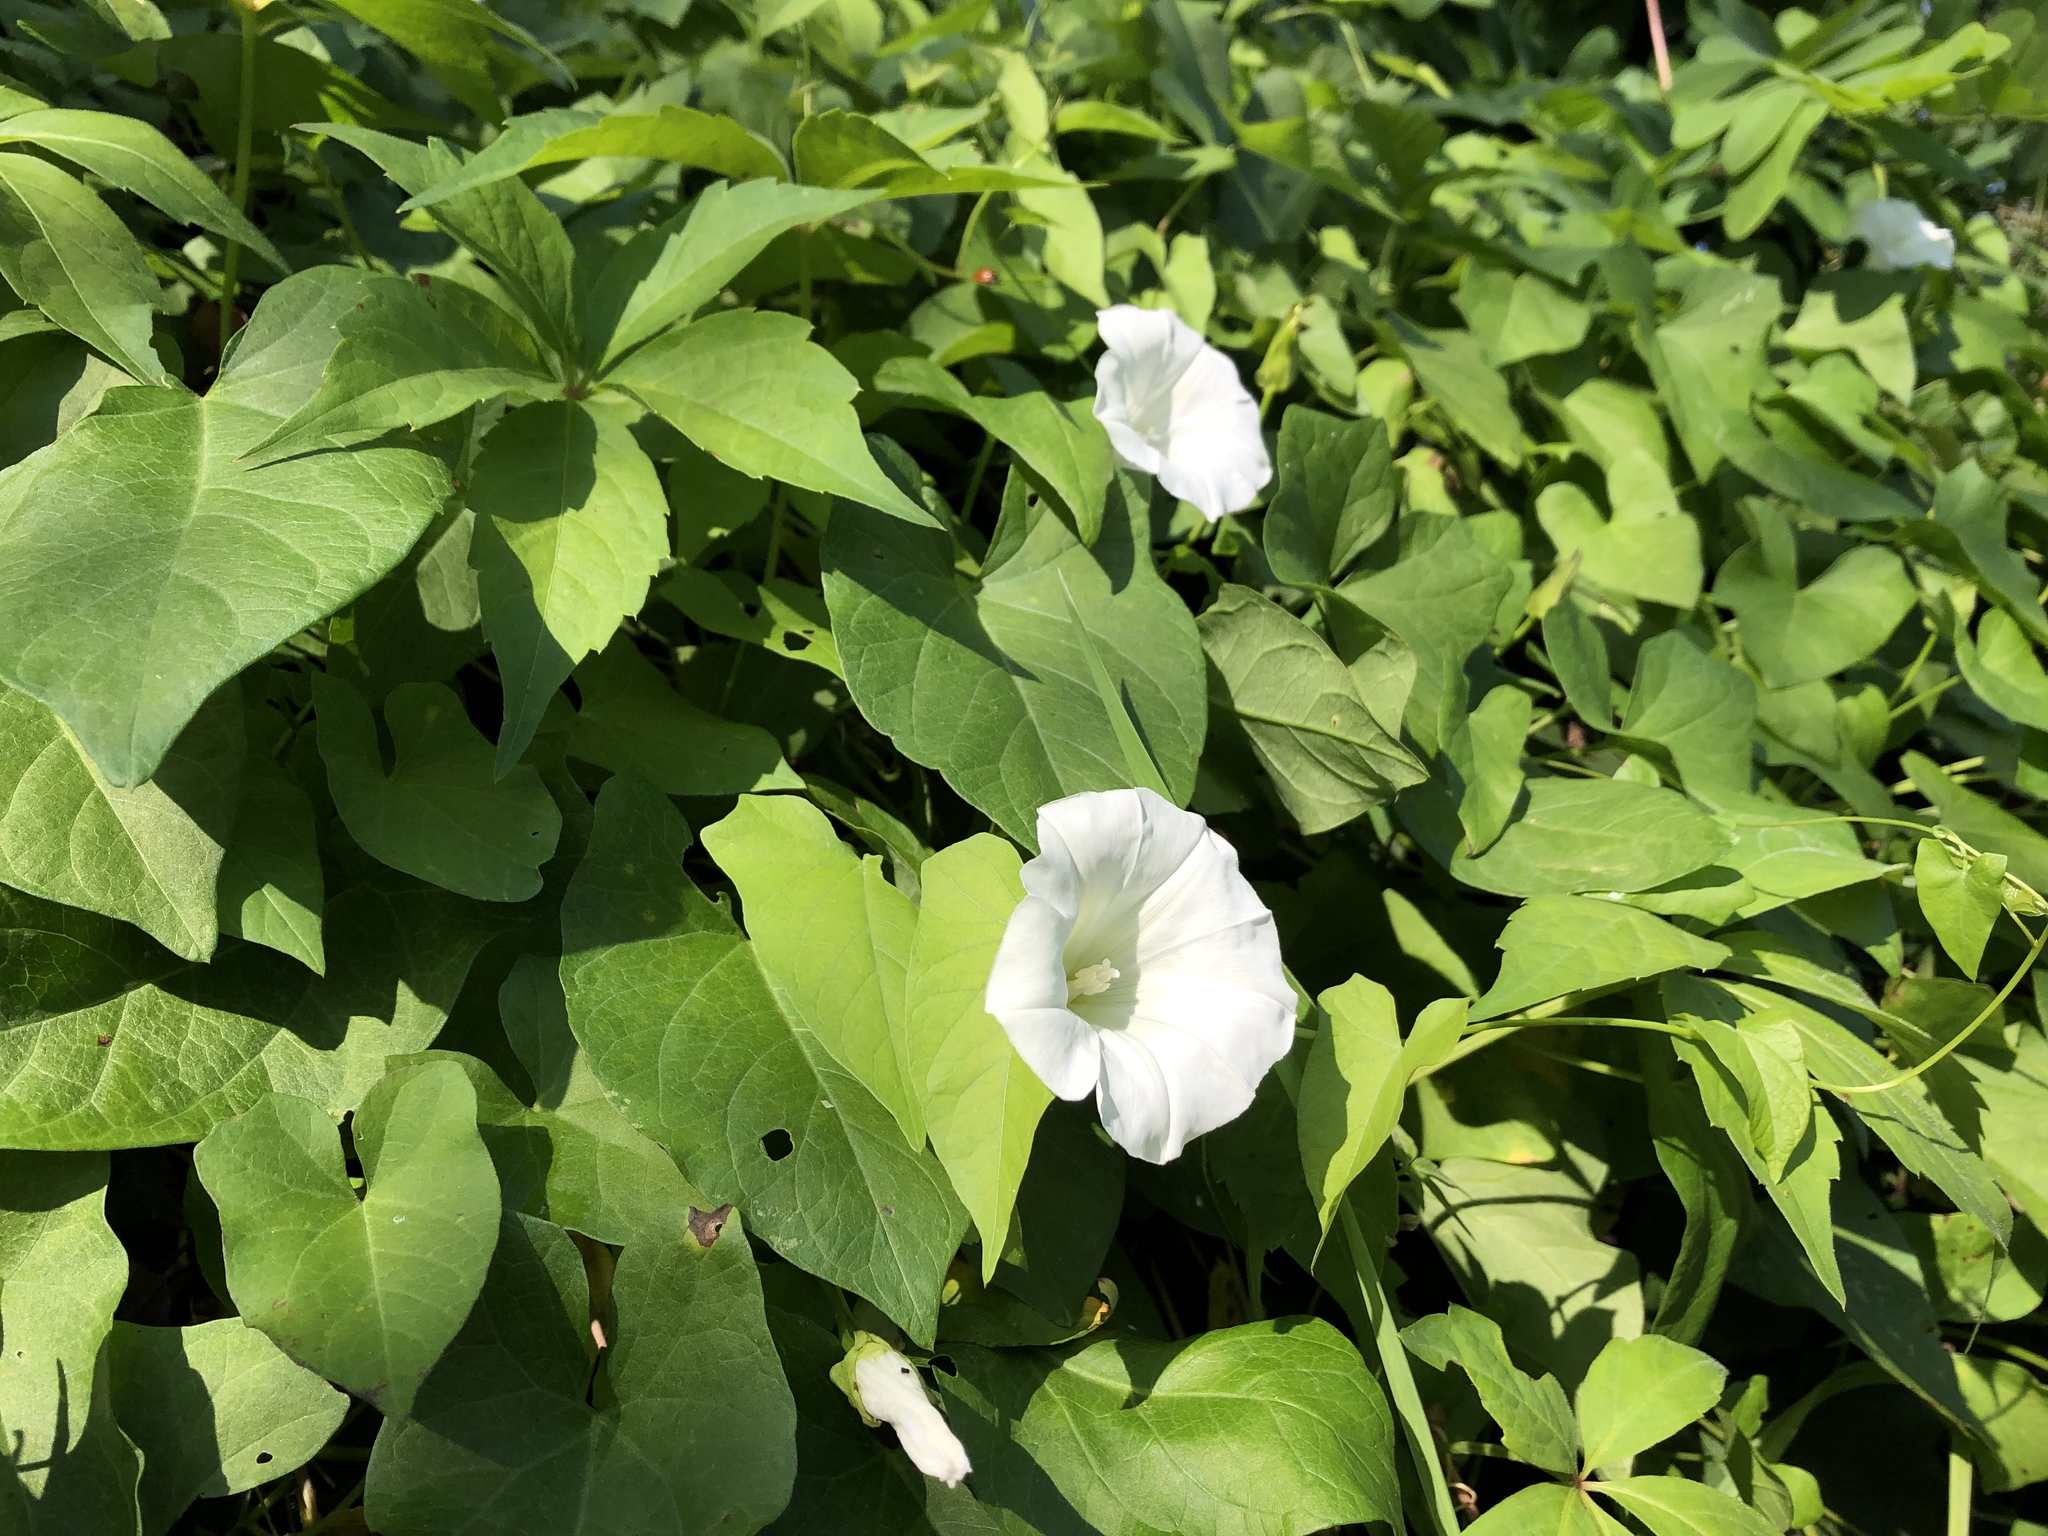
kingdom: Plantae
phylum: Tracheophyta
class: Magnoliopsida
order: Solanales
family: Convolvulaceae
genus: Calystegia
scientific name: Calystegia sepium
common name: Hedge bindweed
